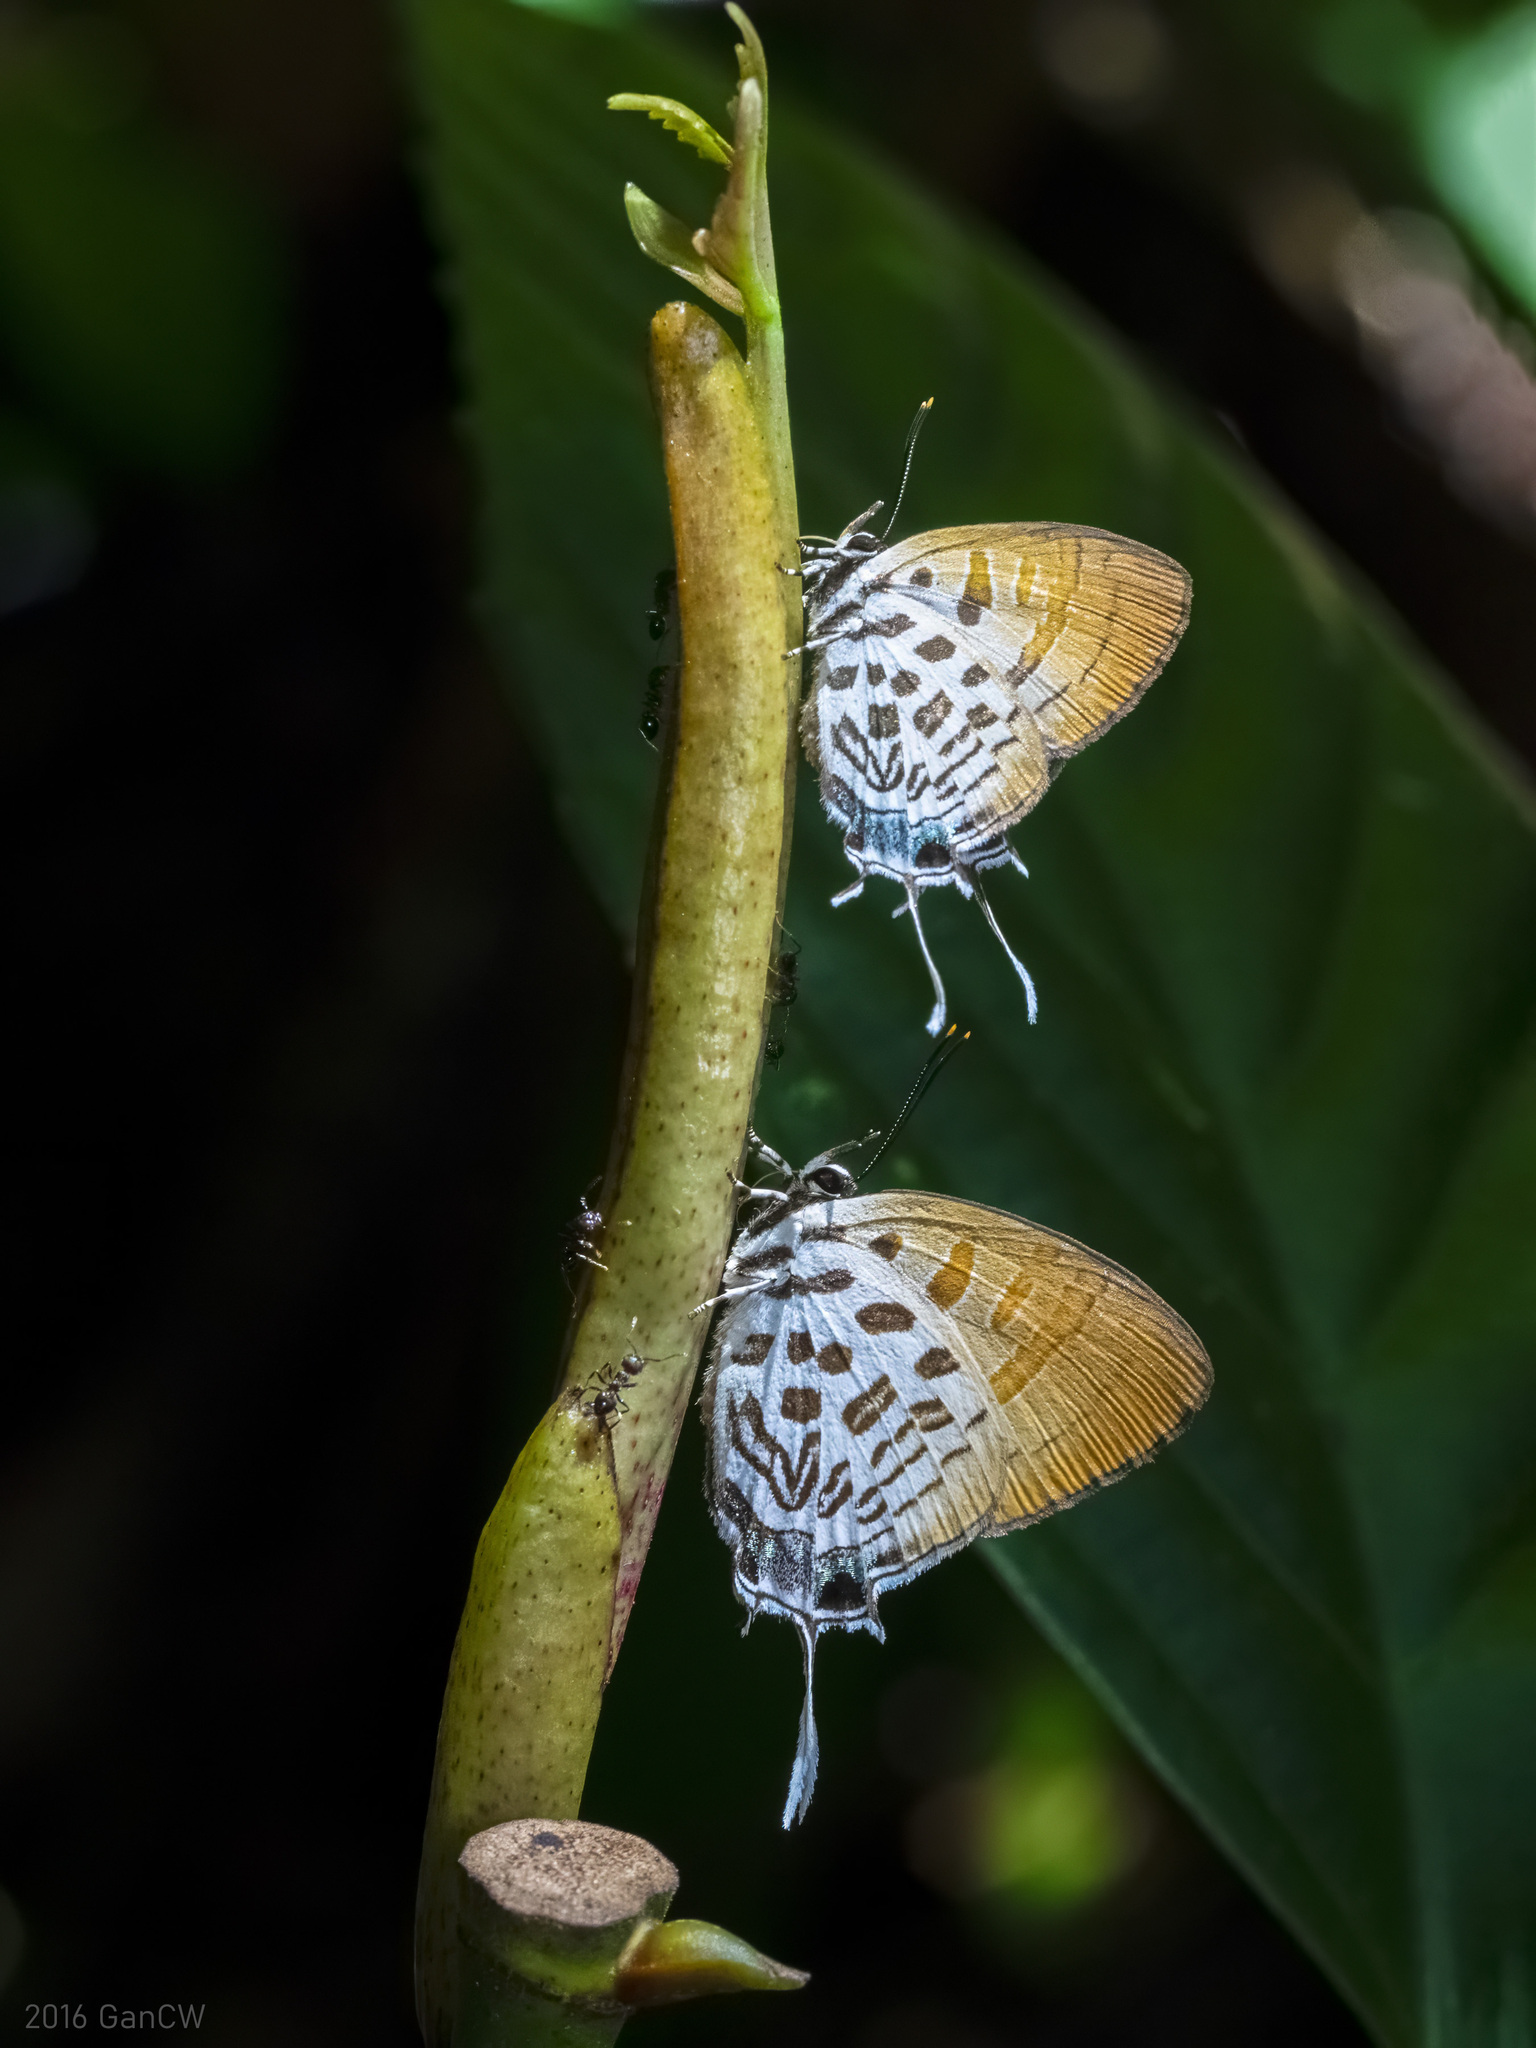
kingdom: Animalia
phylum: Arthropoda
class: Insecta
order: Lepidoptera
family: Lycaenidae
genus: Drupadia
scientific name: Drupadia theda
